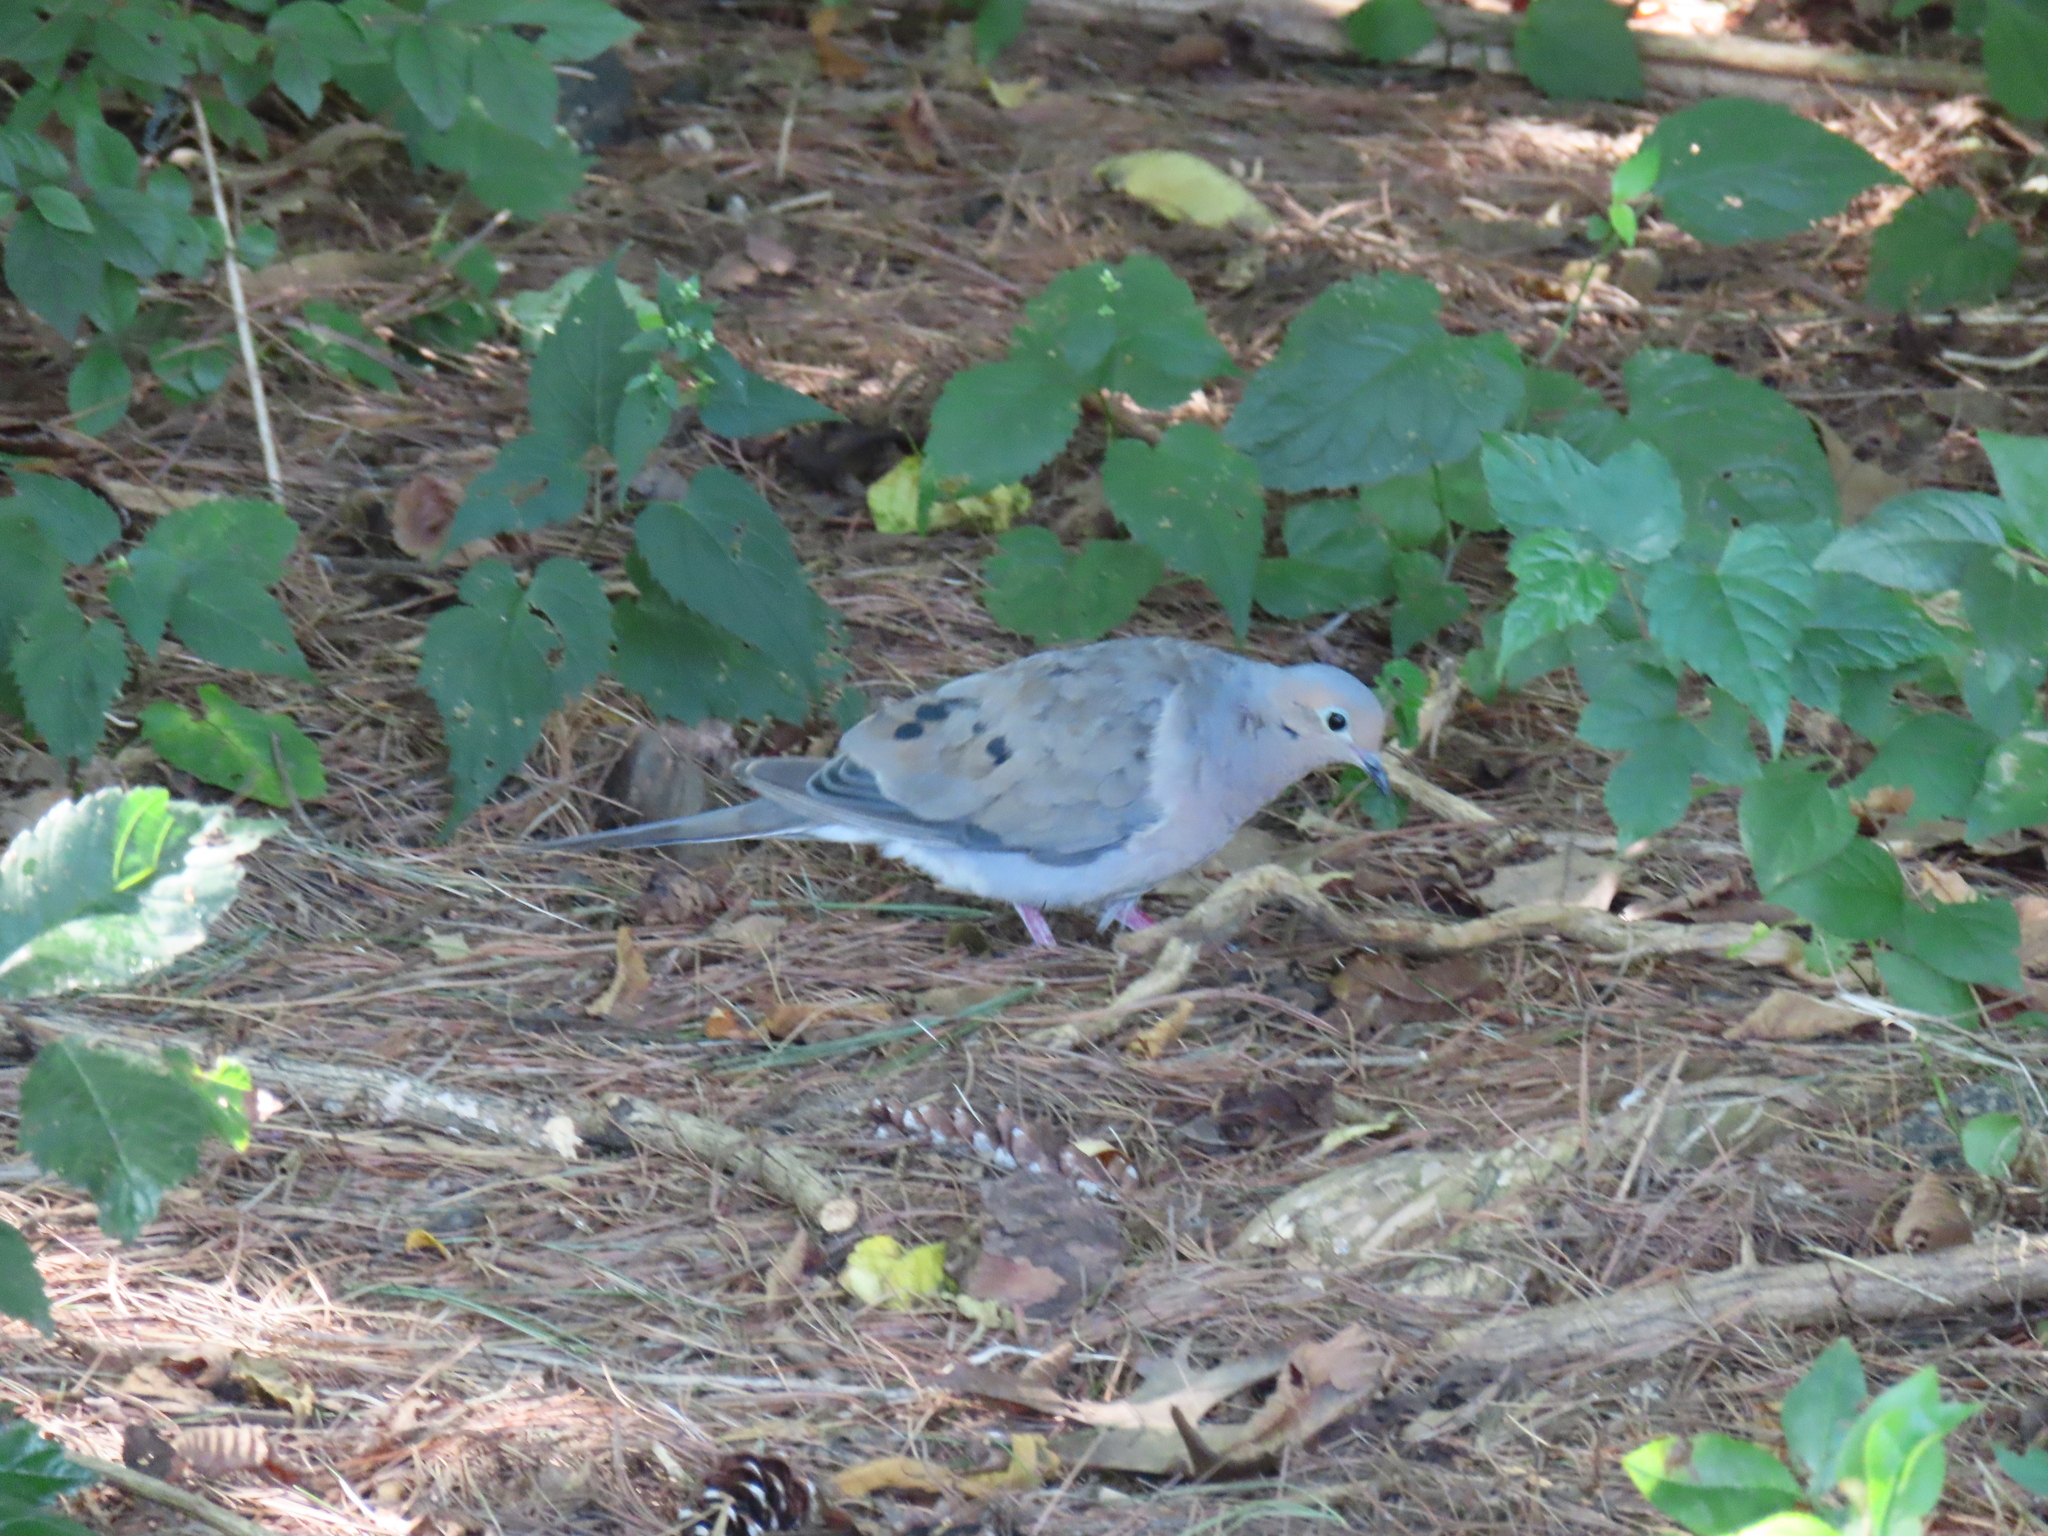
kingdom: Animalia
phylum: Chordata
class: Aves
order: Columbiformes
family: Columbidae
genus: Zenaida
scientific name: Zenaida macroura
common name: Mourning dove
